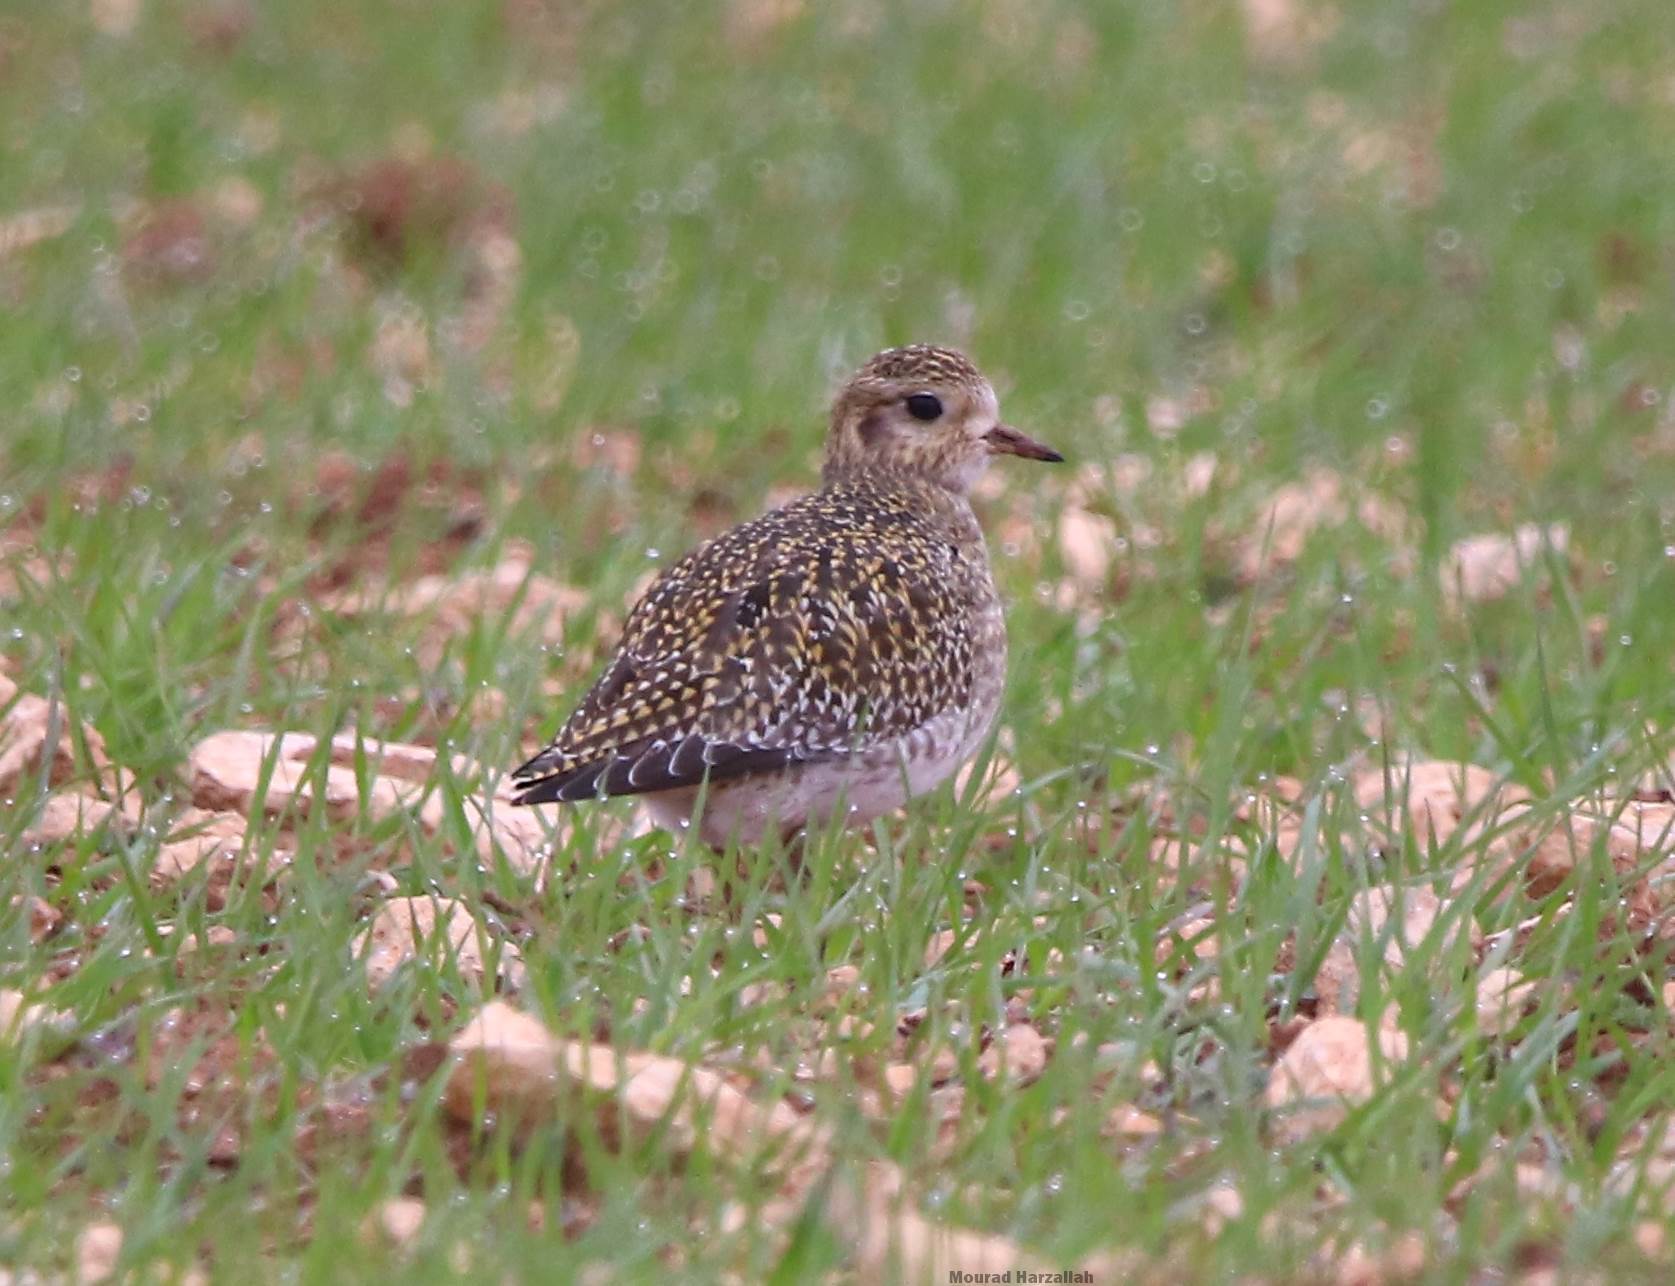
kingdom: Animalia
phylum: Chordata
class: Aves
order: Charadriiformes
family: Charadriidae
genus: Pluvialis
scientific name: Pluvialis apricaria
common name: European golden plover
